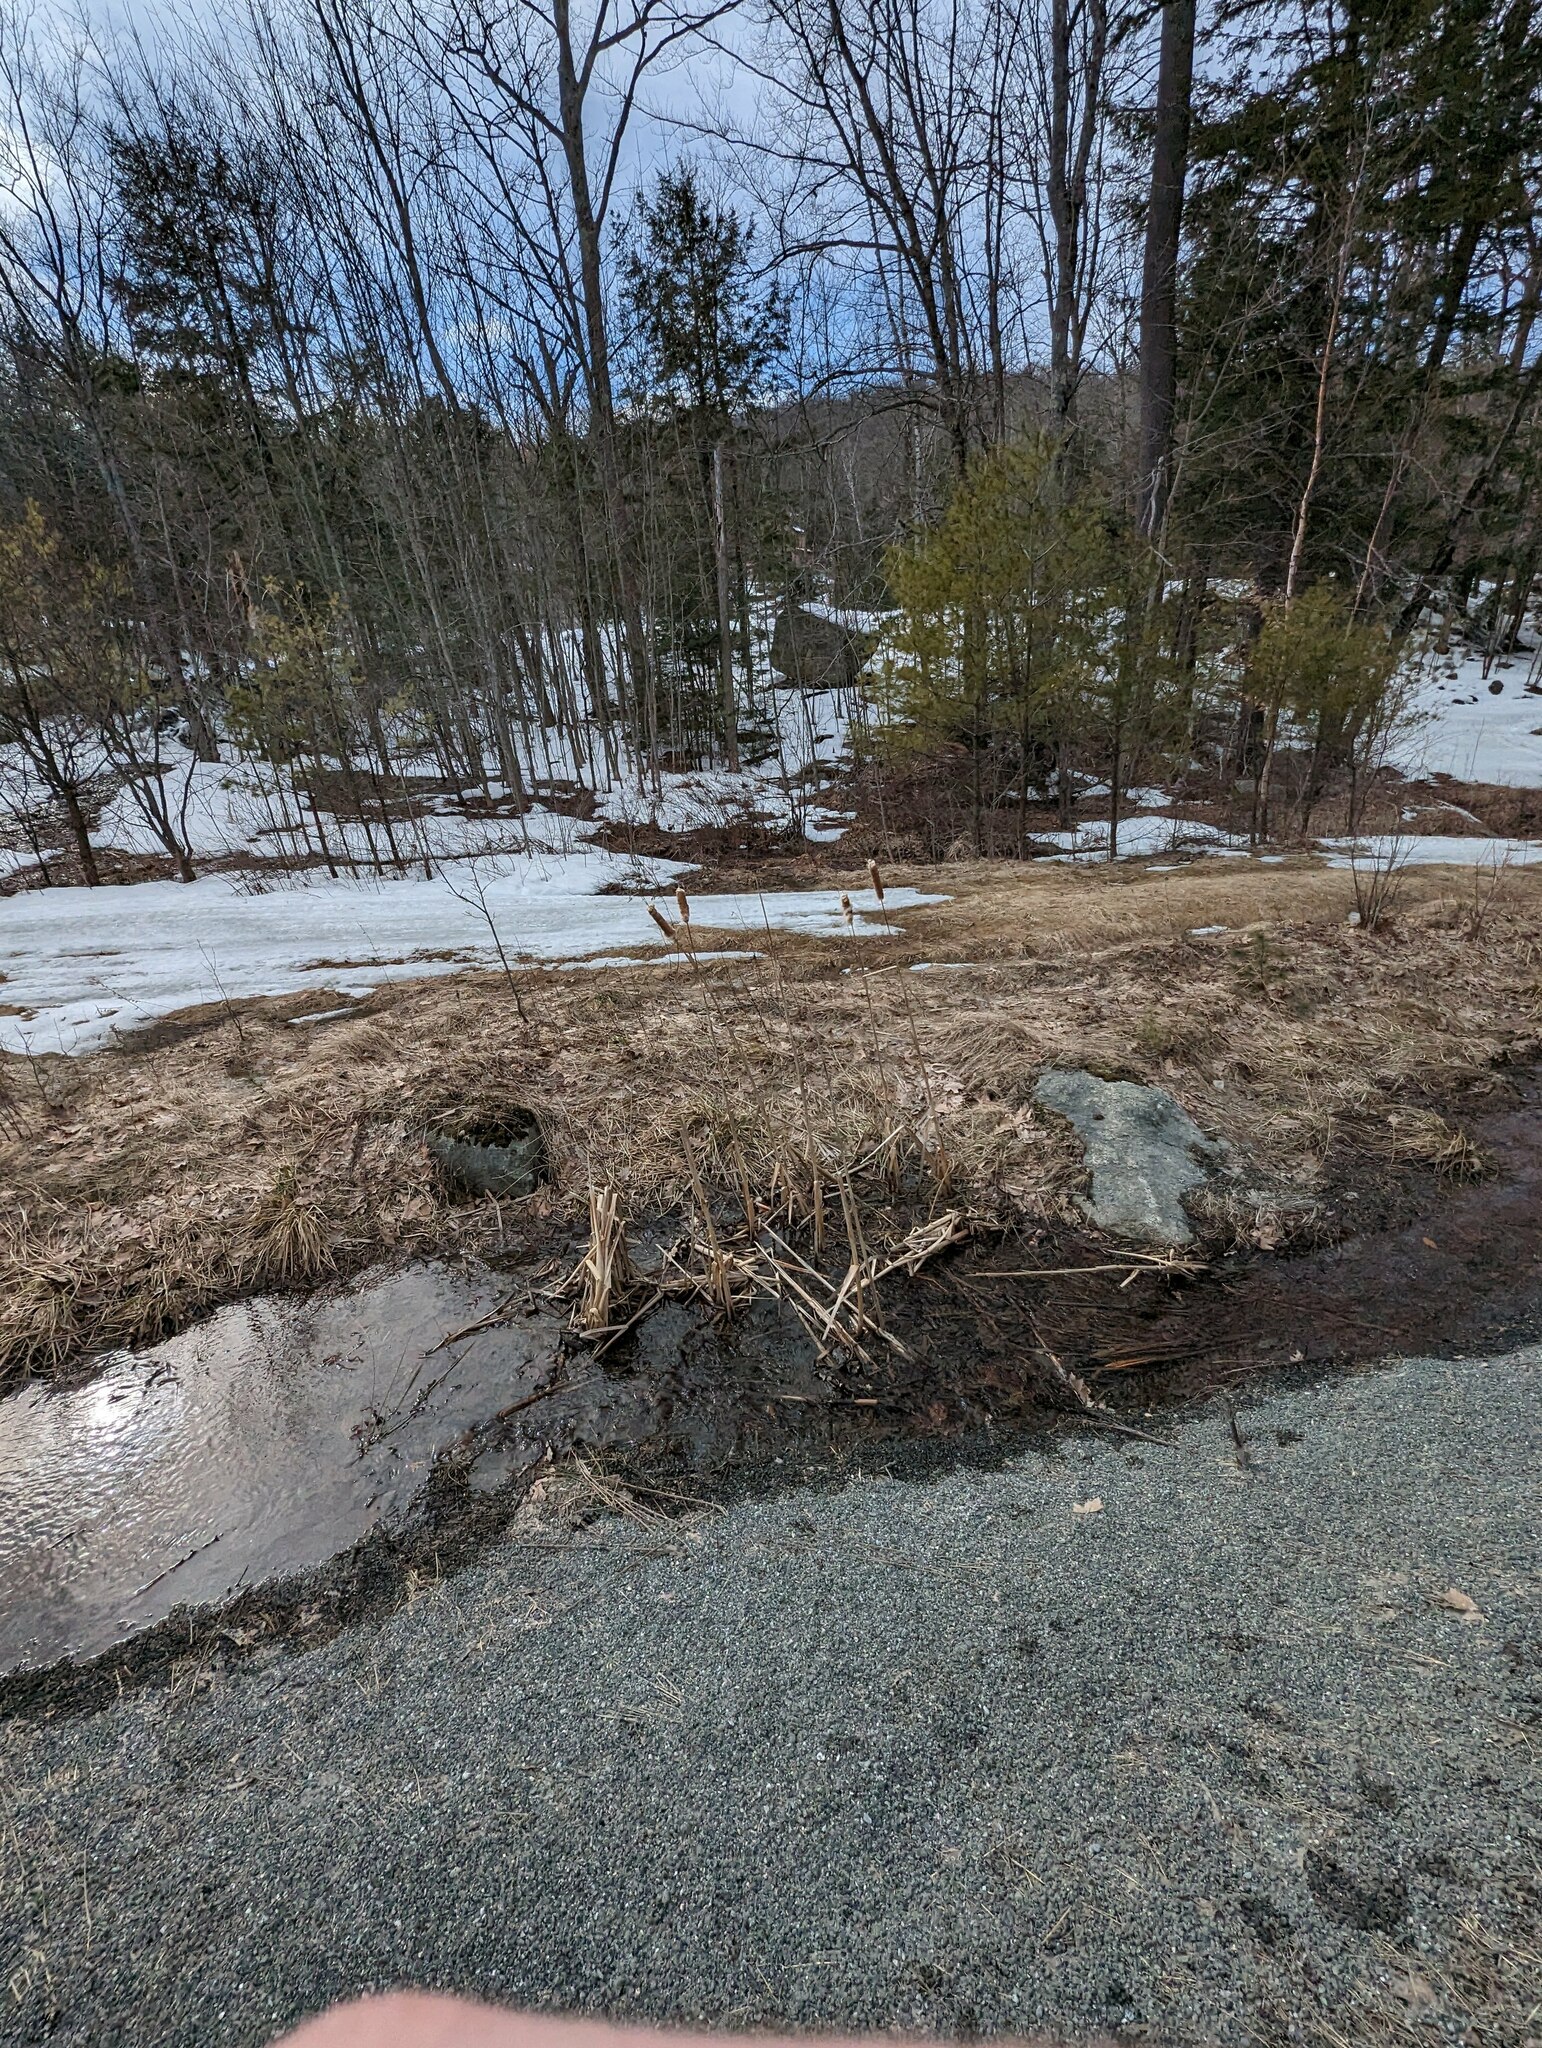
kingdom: Plantae
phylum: Tracheophyta
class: Liliopsida
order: Poales
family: Typhaceae
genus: Typha
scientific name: Typha latifolia
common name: Broadleaf cattail
